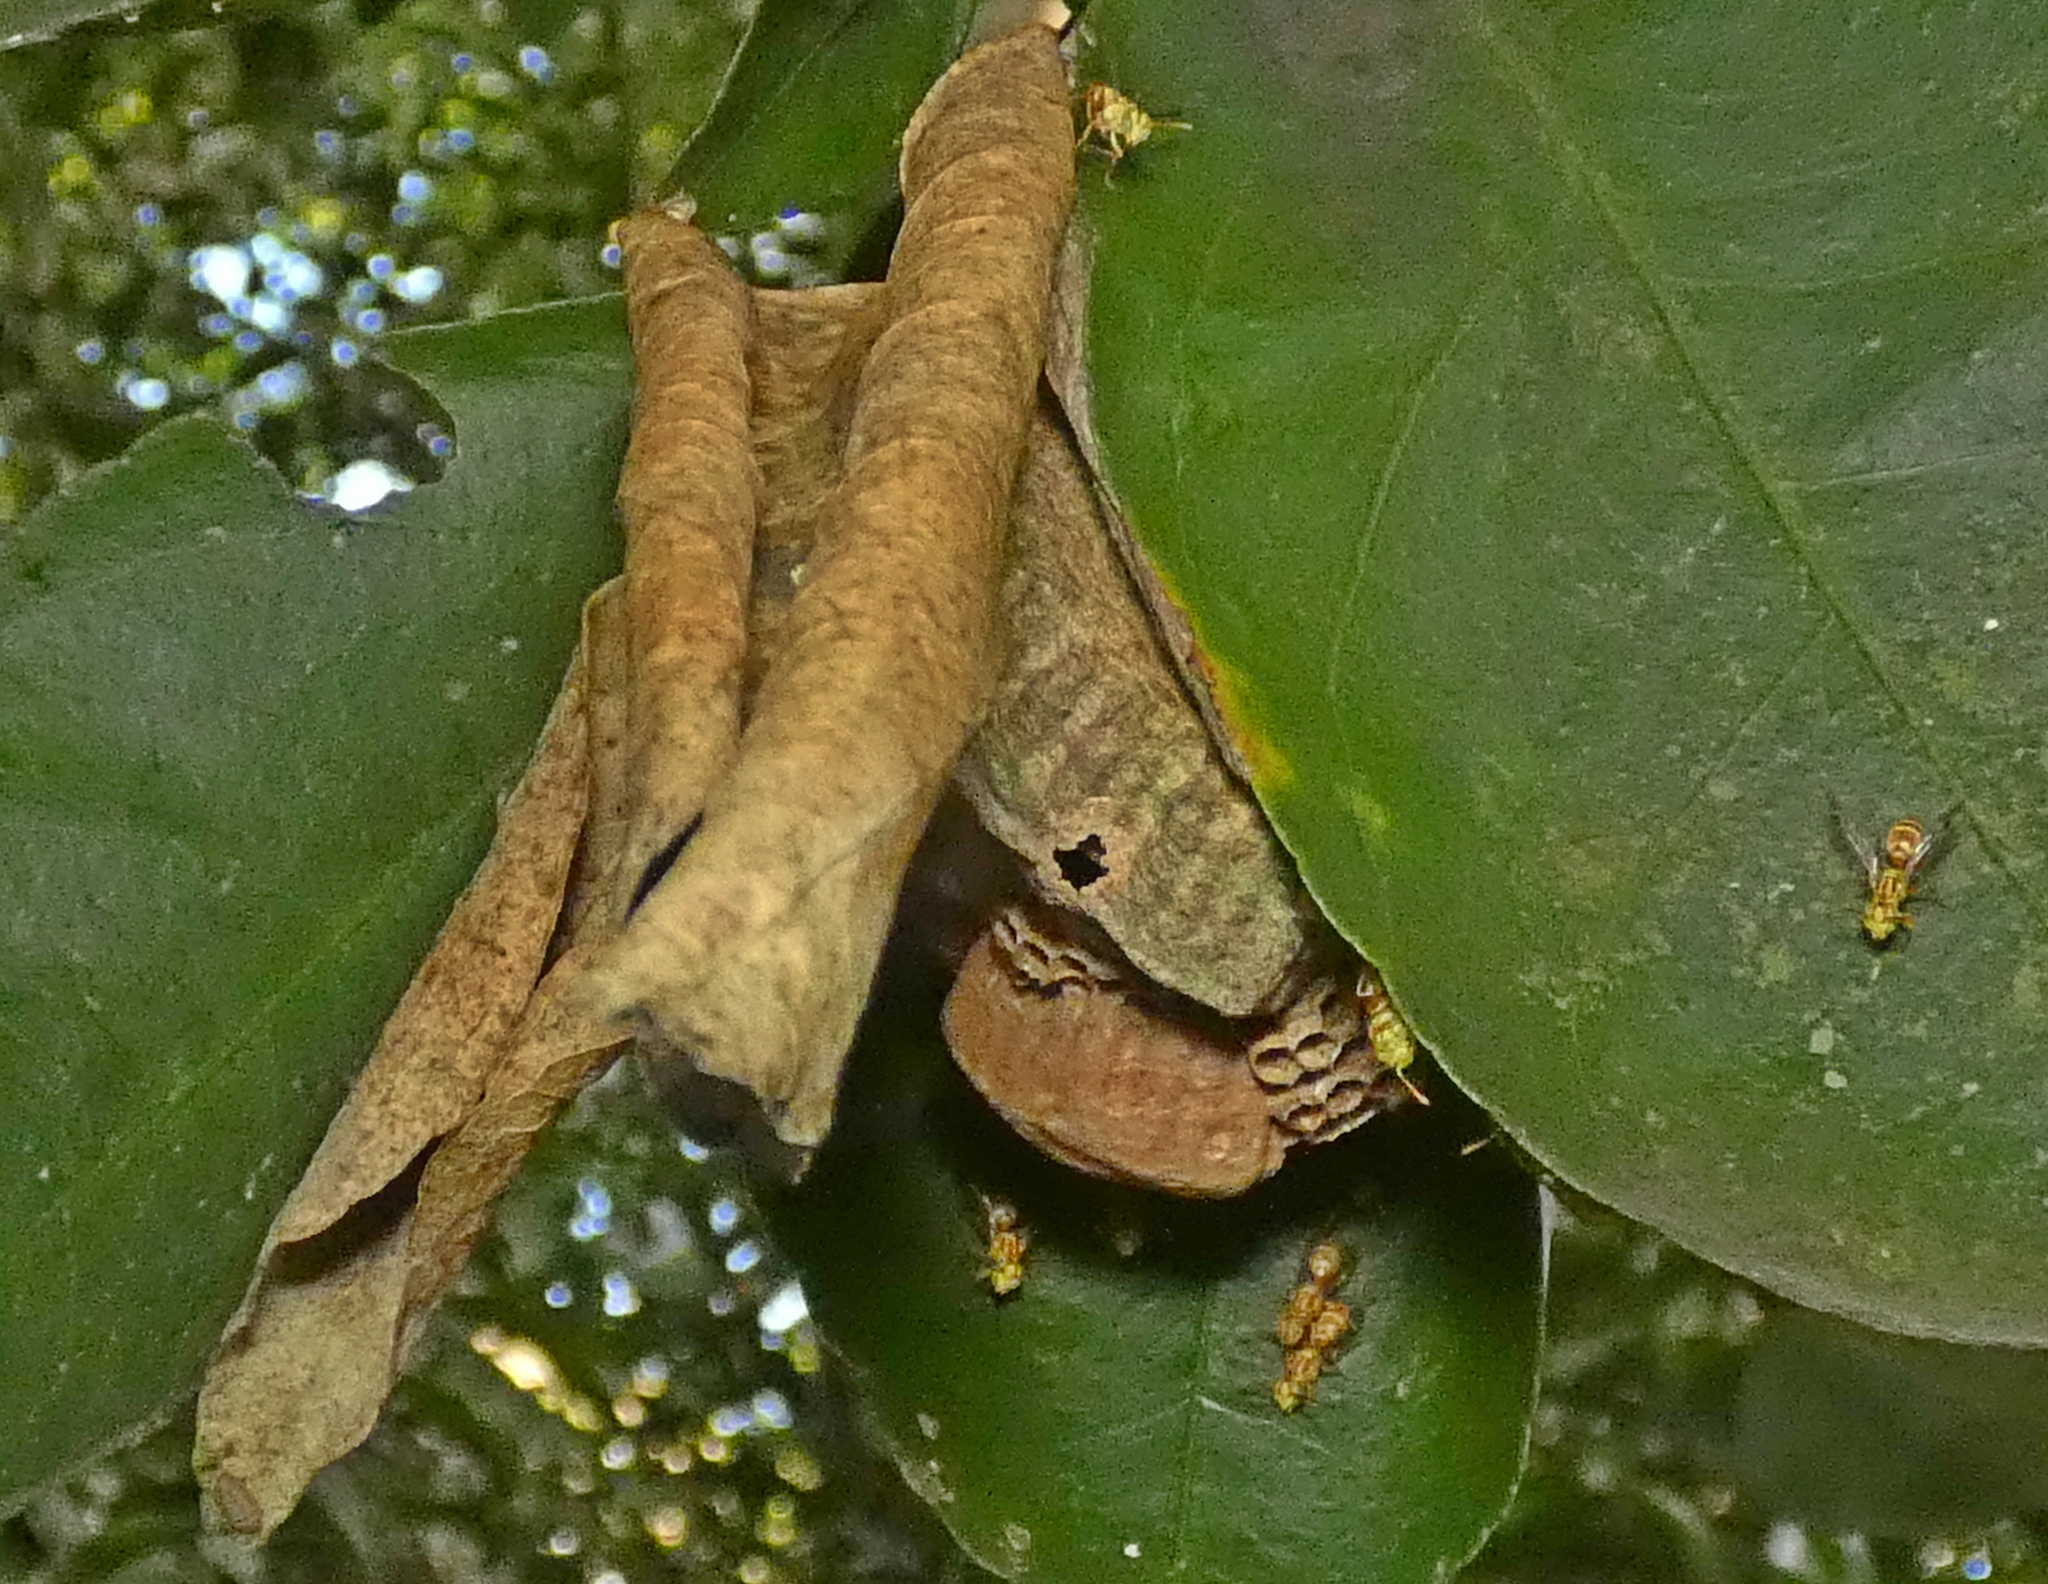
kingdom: Animalia
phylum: Arthropoda
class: Insecta
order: Hymenoptera
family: Vespidae
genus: Protopolybia
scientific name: Protopolybia potiguara
